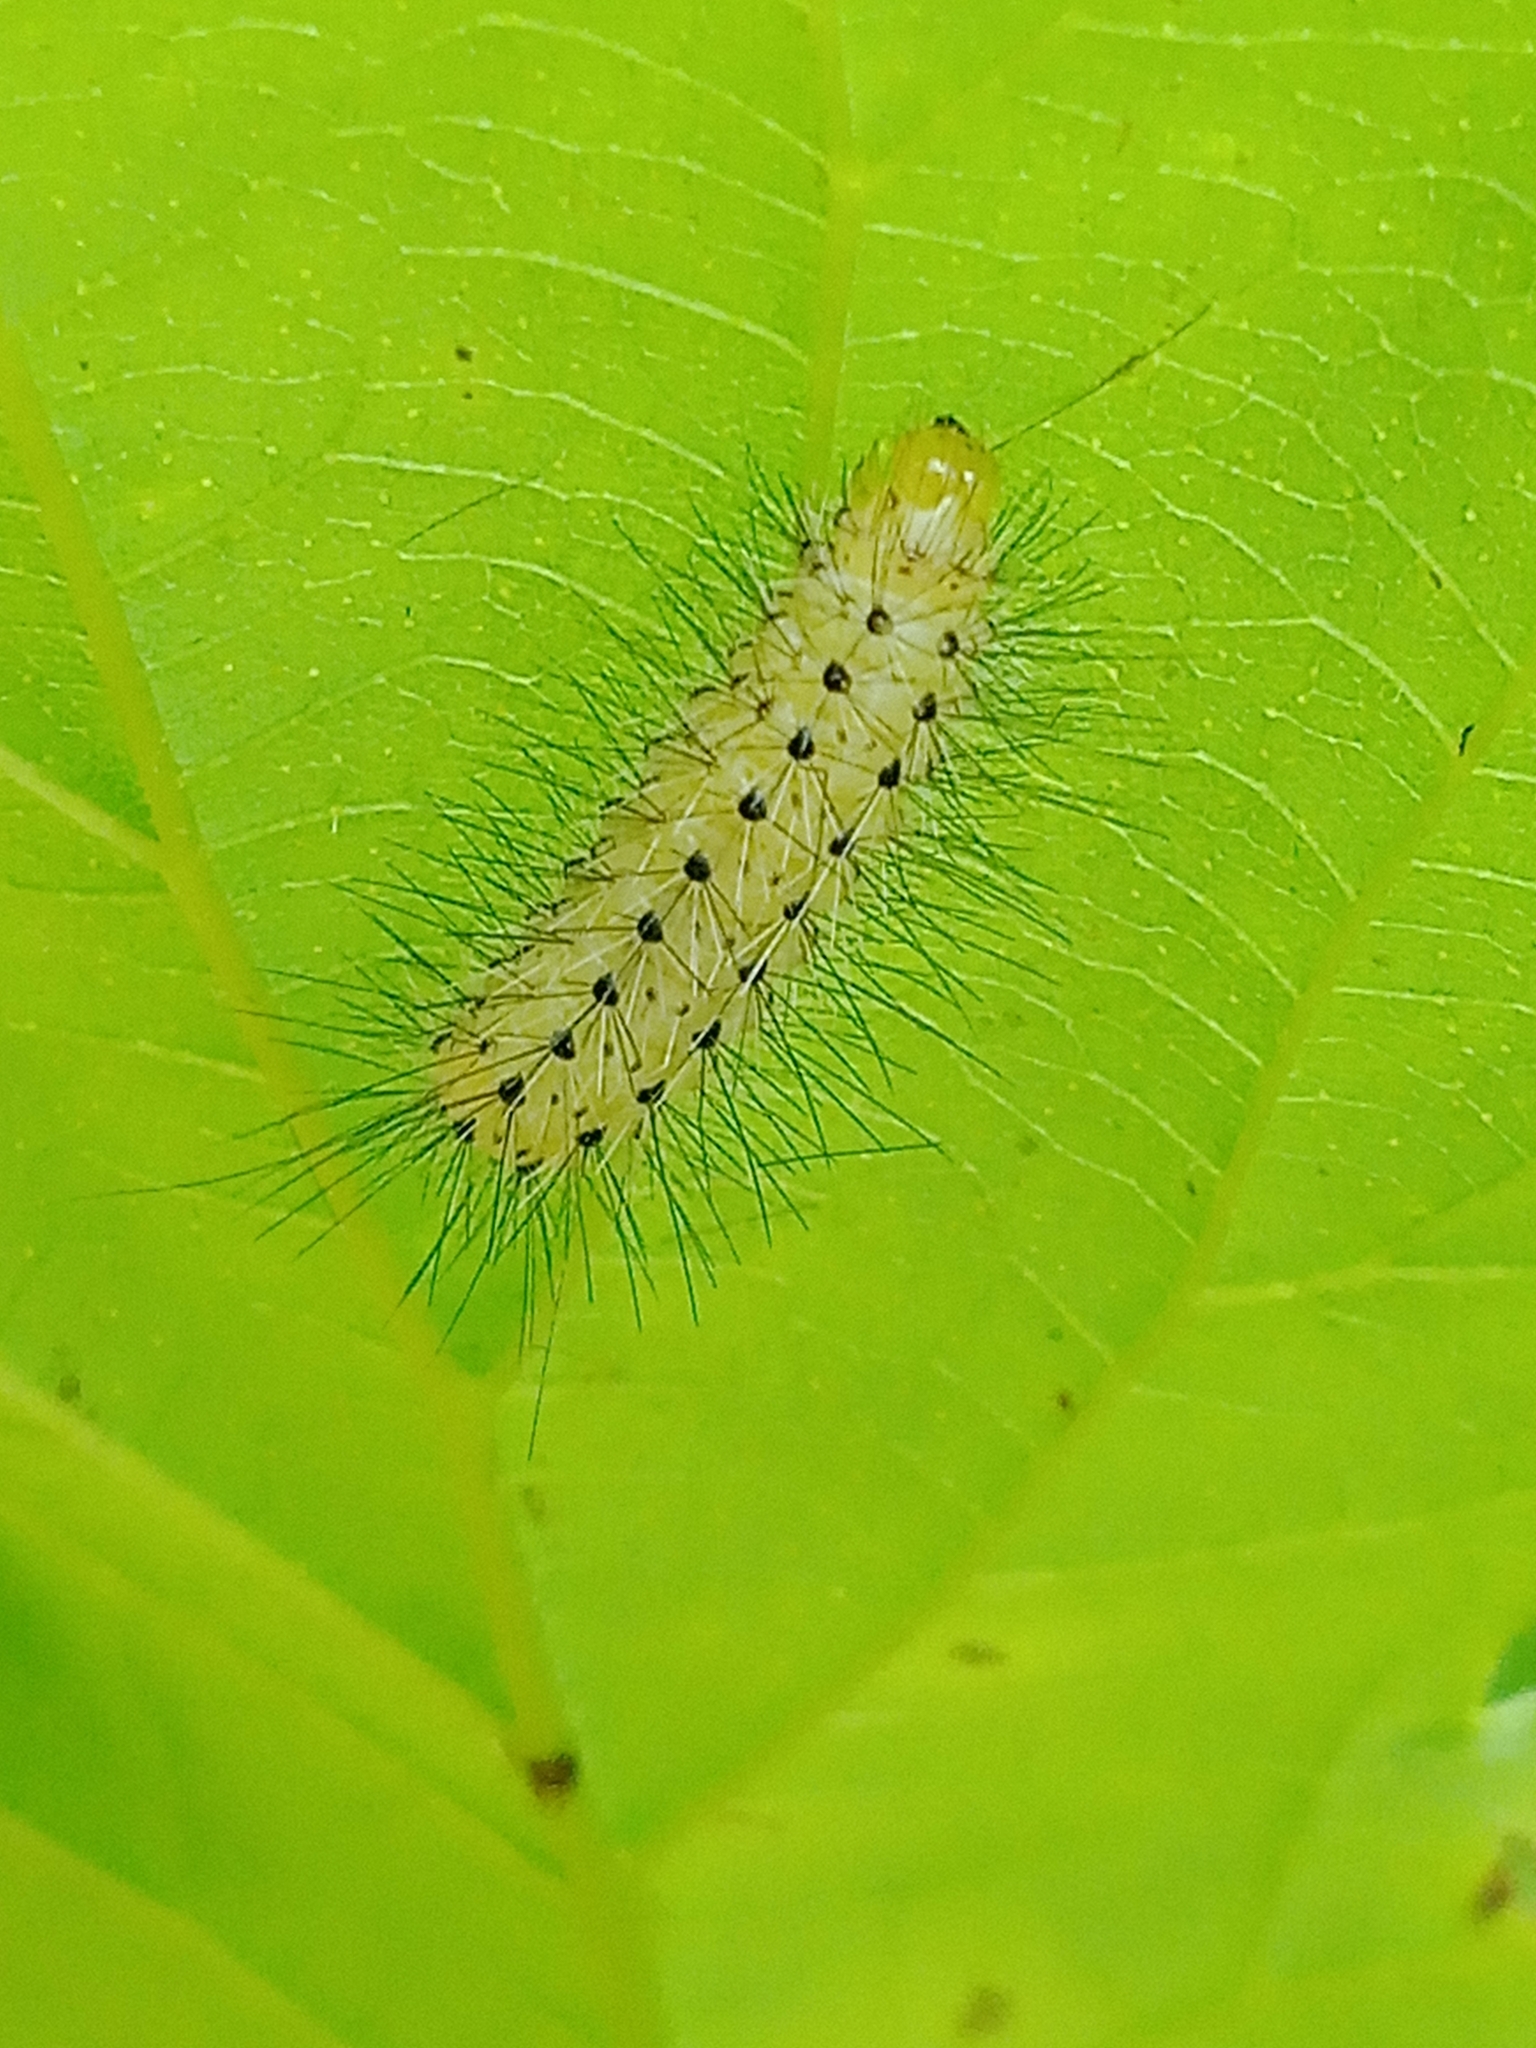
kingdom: Animalia
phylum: Arthropoda
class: Insecta
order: Lepidoptera
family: Erebidae
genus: Diaphora
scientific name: Diaphora mendica
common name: Muslin moth
